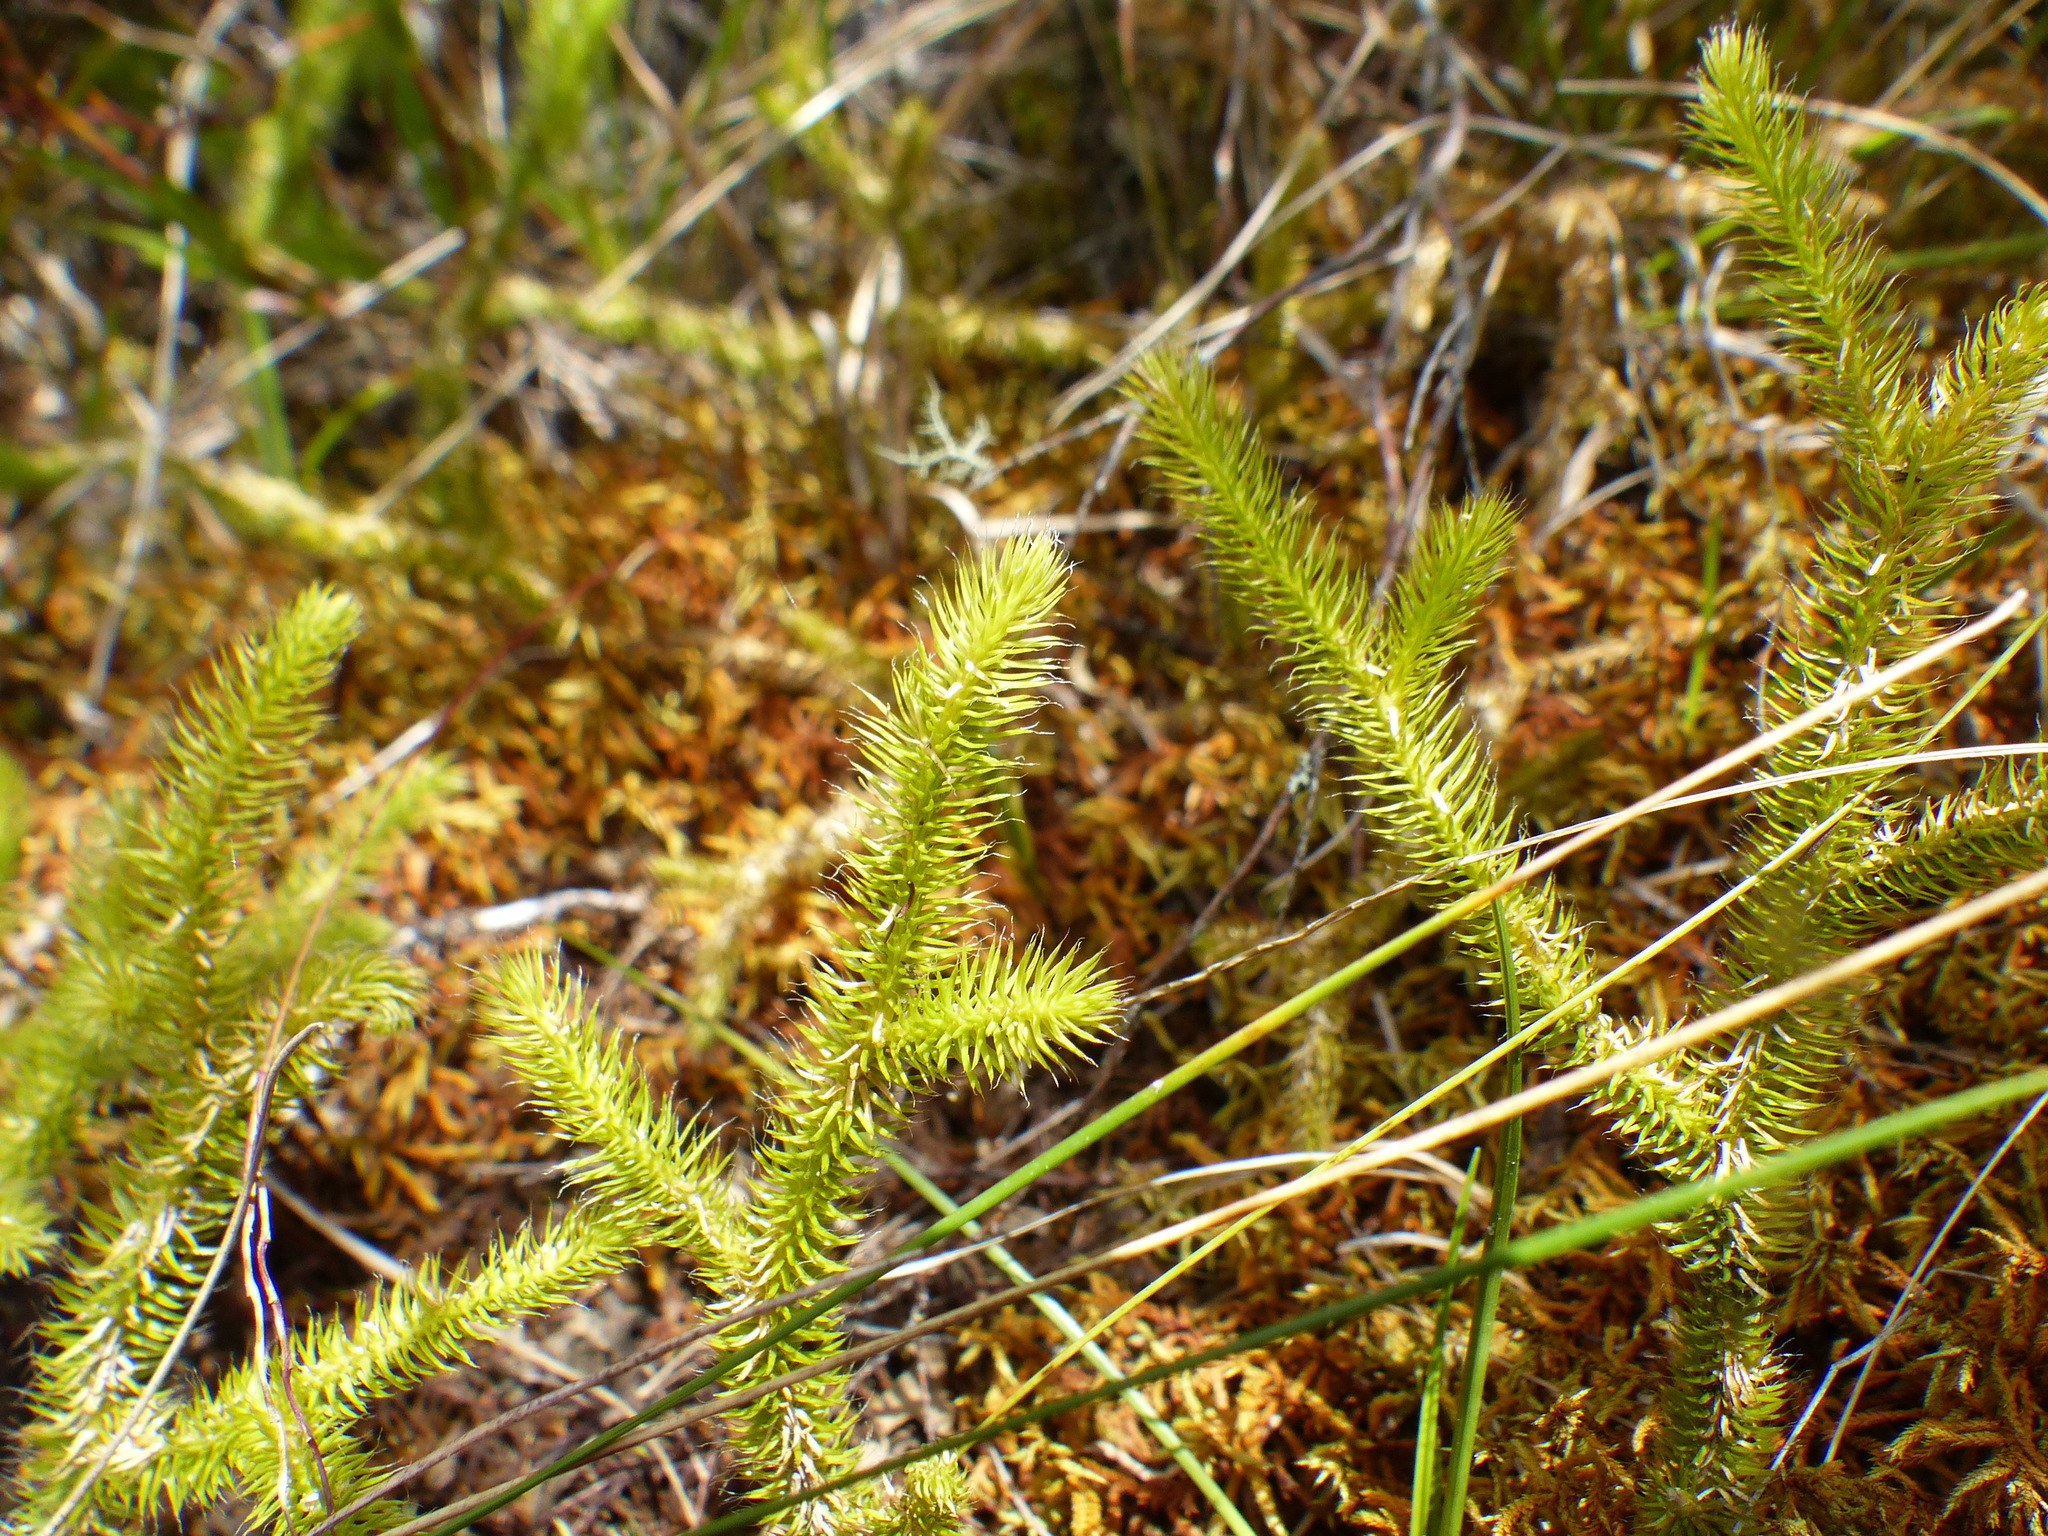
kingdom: Plantae
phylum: Tracheophyta
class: Lycopodiopsida
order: Lycopodiales
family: Lycopodiaceae
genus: Lycopodium
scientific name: Lycopodium clavatum
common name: Stag's-horn clubmoss
